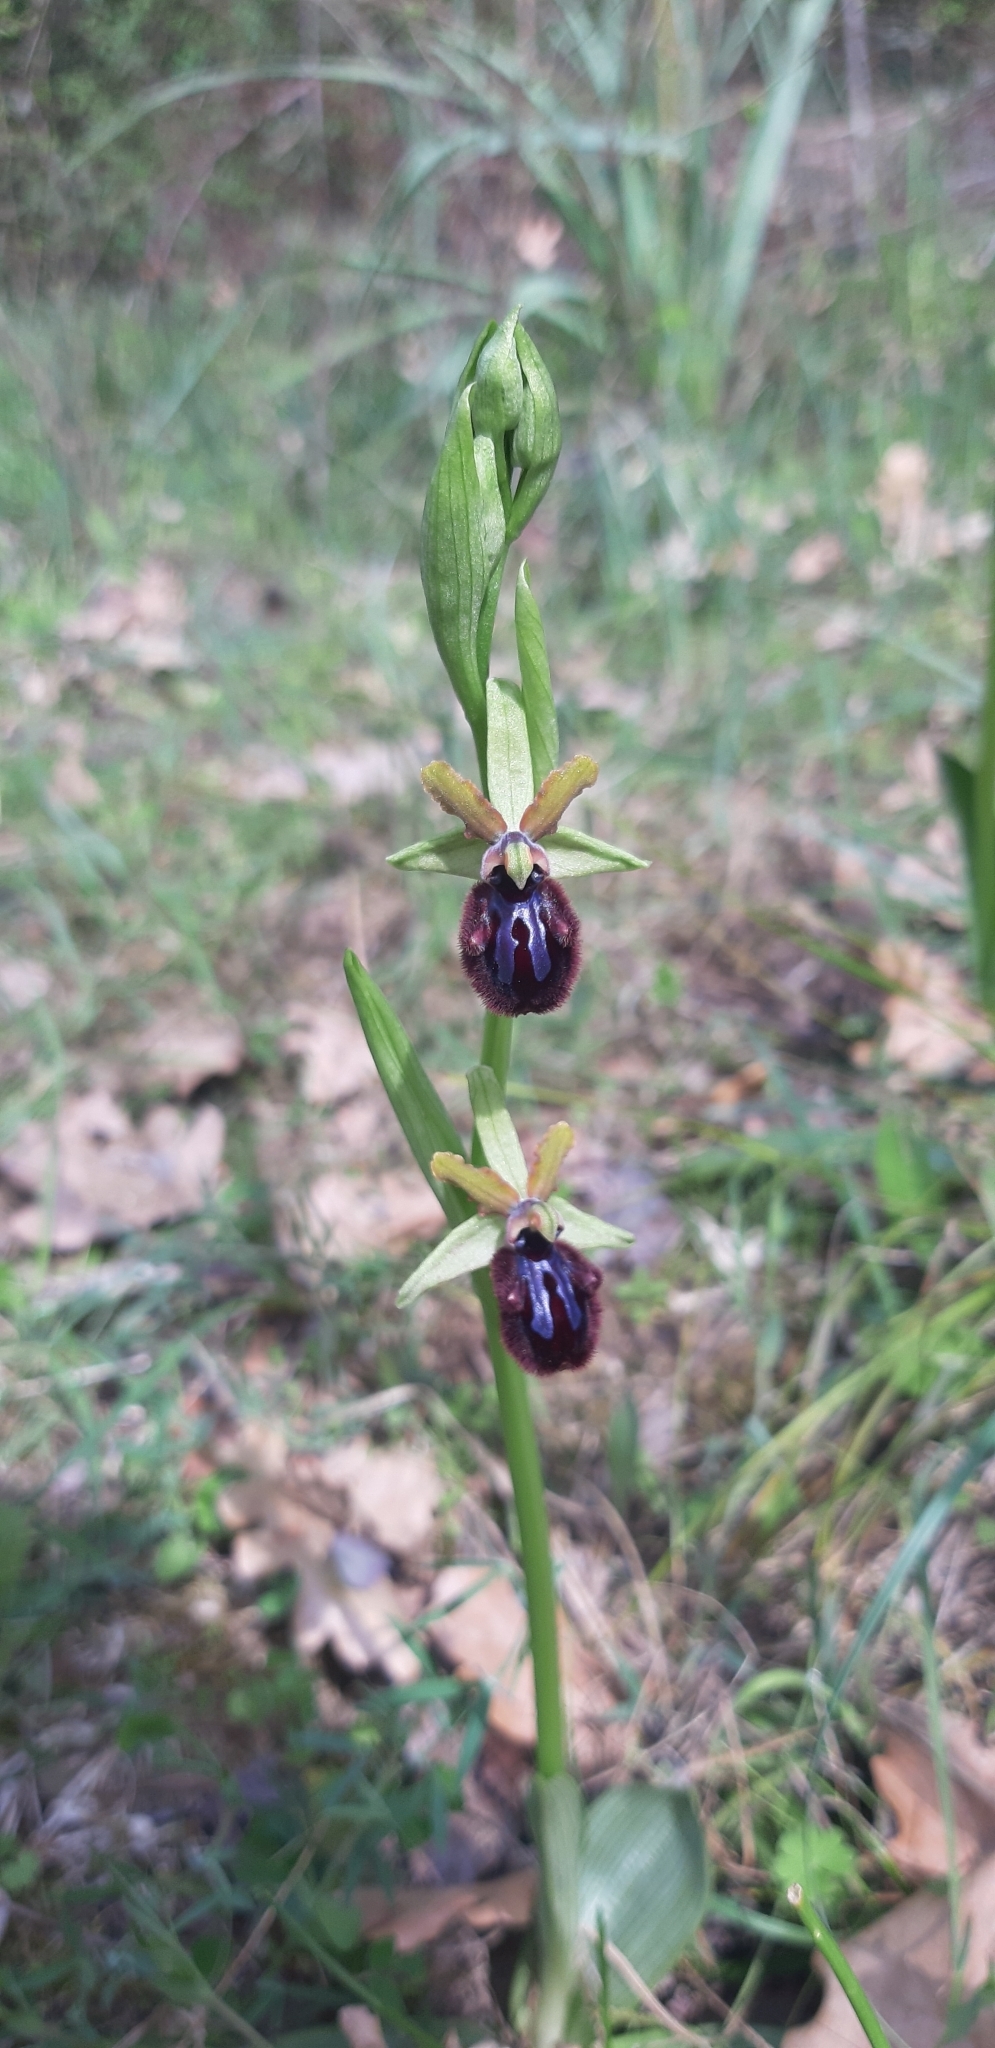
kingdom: Plantae
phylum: Tracheophyta
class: Liliopsida
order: Asparagales
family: Orchidaceae
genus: Ophrys
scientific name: Ophrys sphegodes
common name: Early spider-orchid
